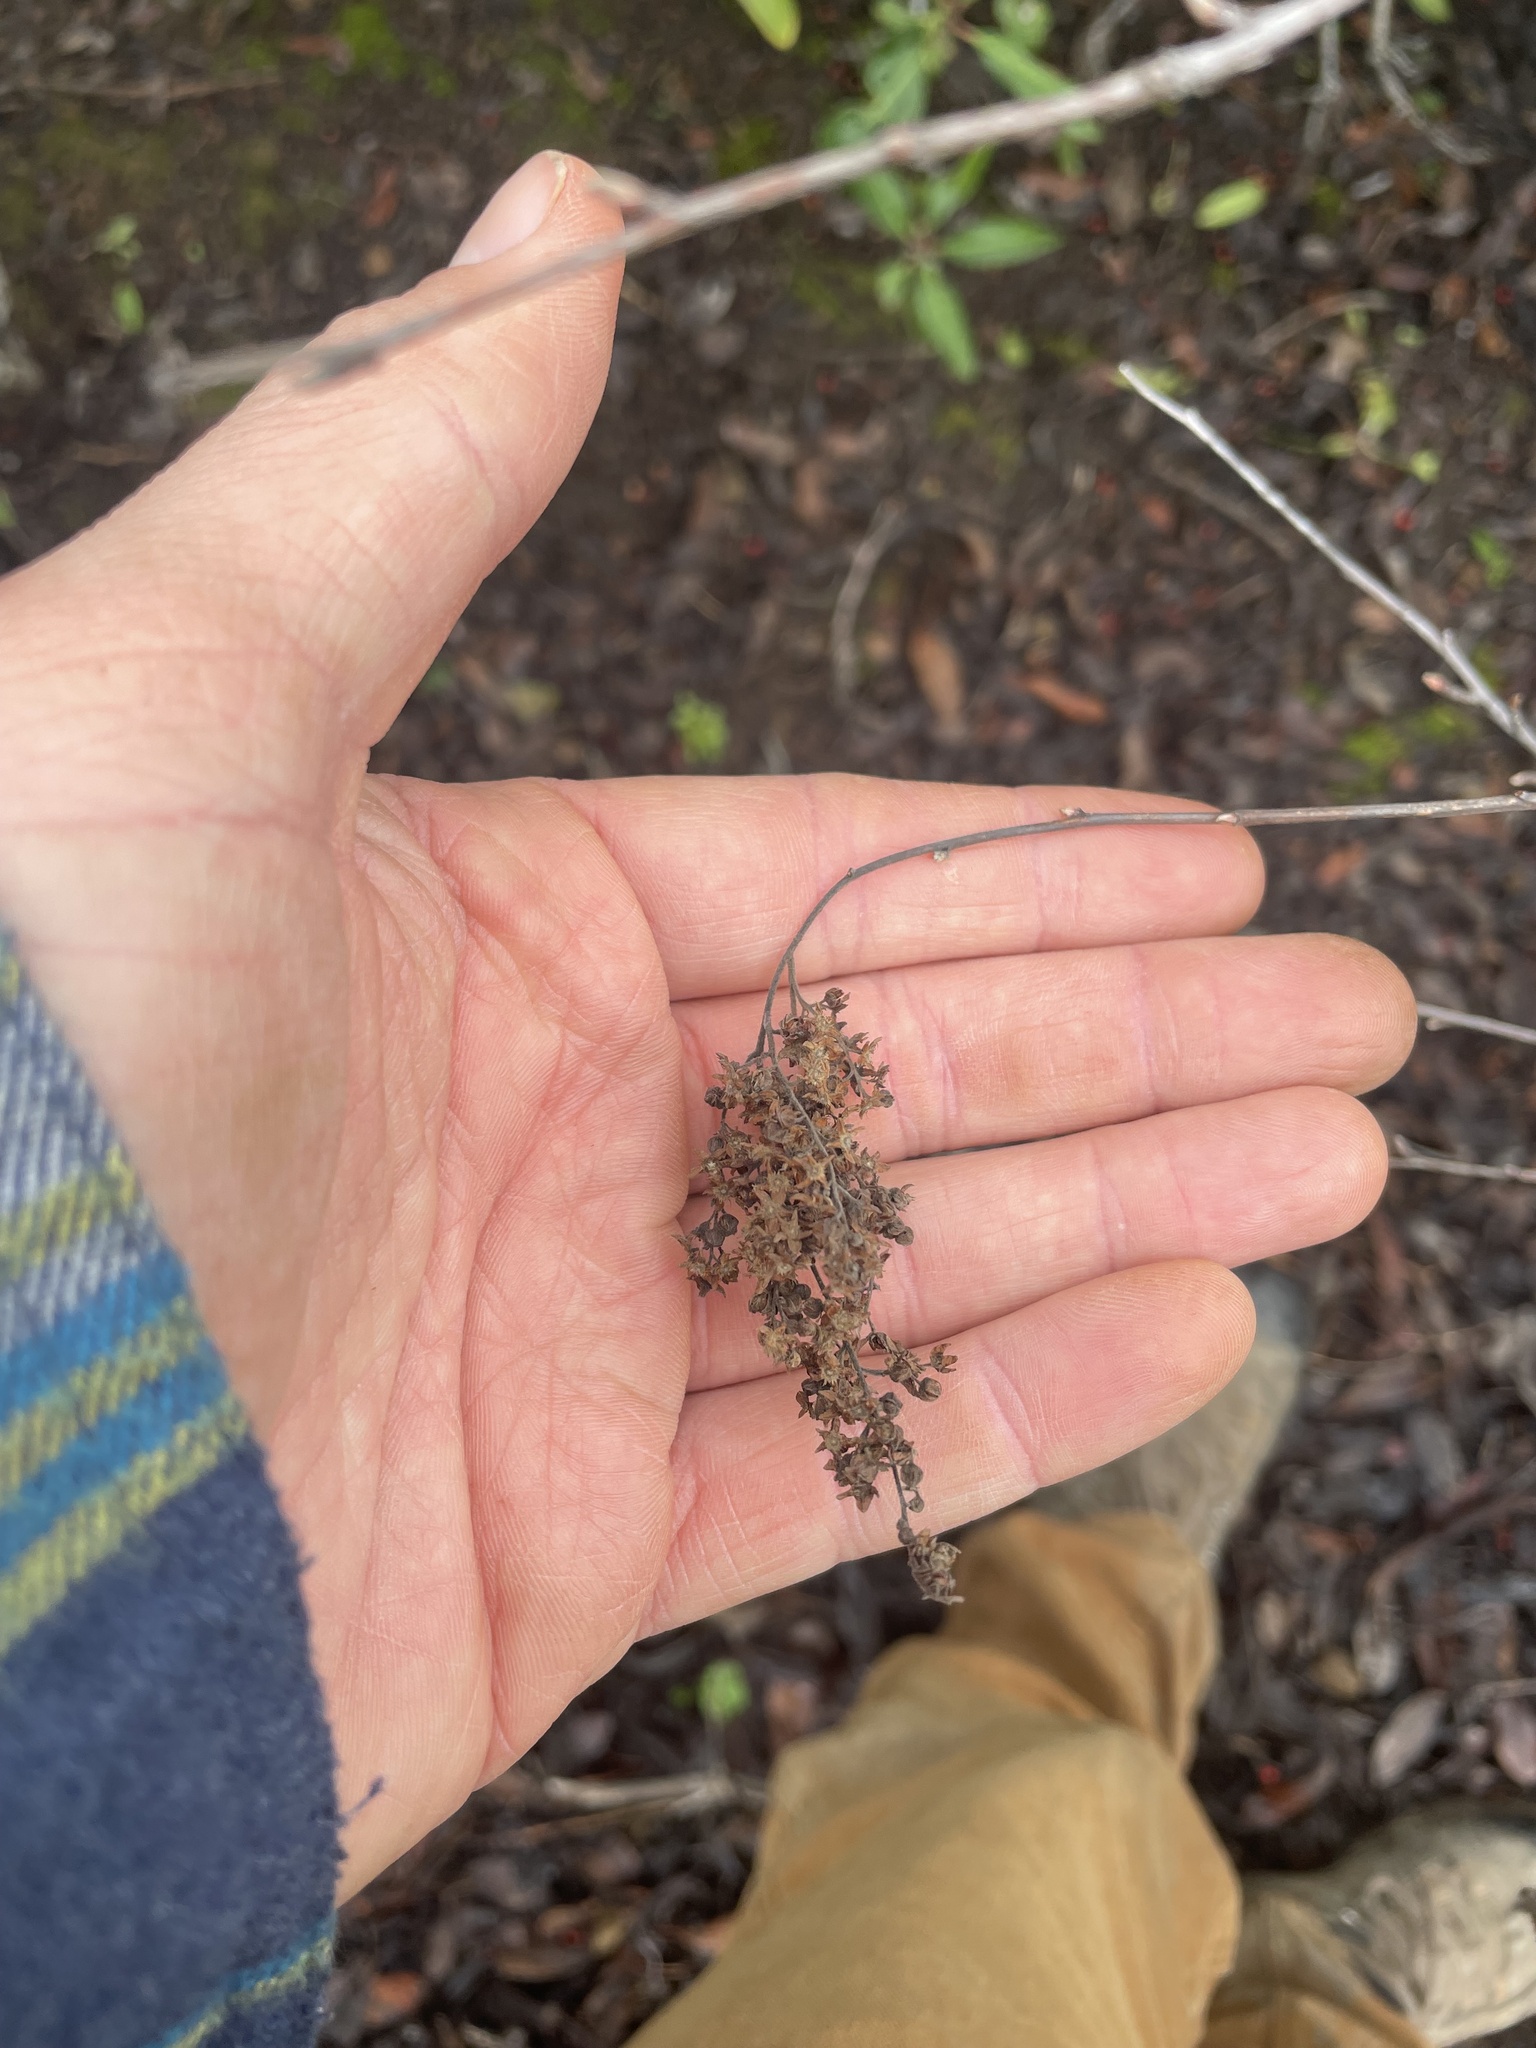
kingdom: Plantae
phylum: Tracheophyta
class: Magnoliopsida
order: Rosales
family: Rosaceae
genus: Holodiscus
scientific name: Holodiscus discolor
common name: Oceanspray
